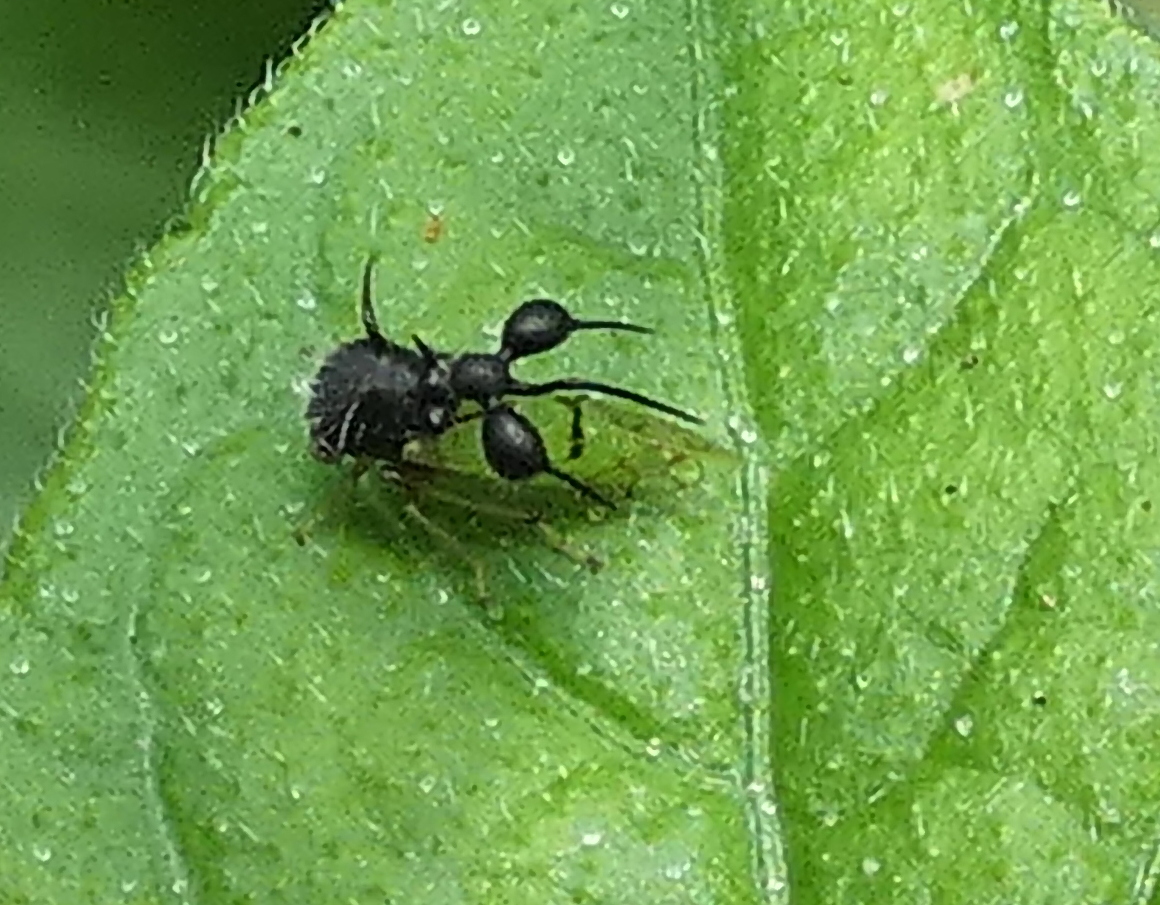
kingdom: Animalia
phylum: Arthropoda
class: Insecta
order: Hemiptera
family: Membracidae
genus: Cyphonia
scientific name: Cyphonia clavata
